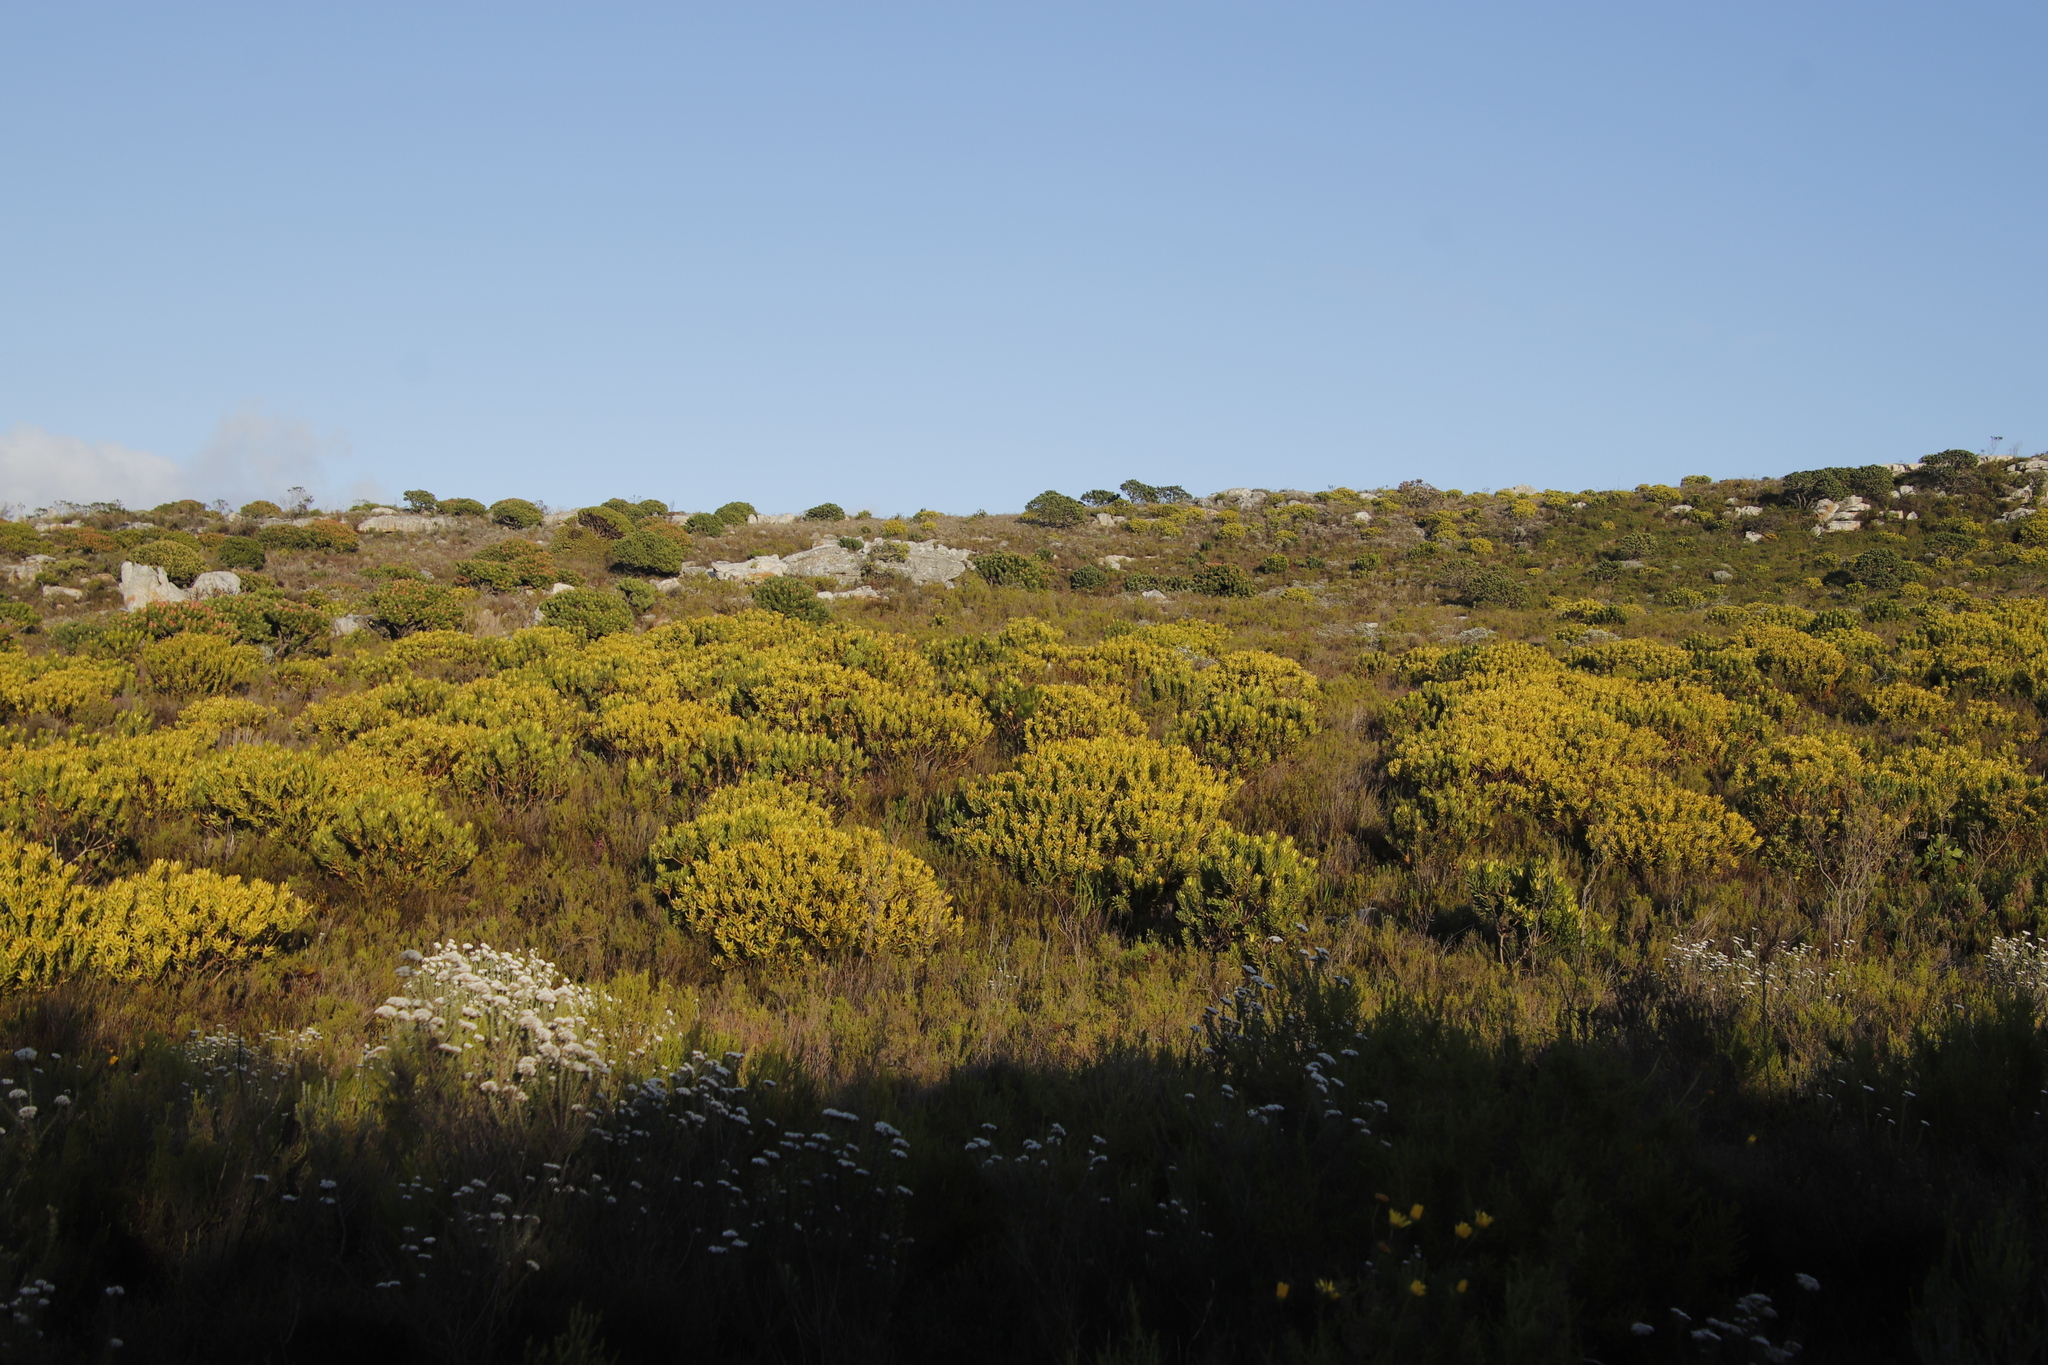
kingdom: Plantae
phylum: Tracheophyta
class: Magnoliopsida
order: Proteales
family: Proteaceae
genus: Leucadendron
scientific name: Leucadendron laureolum
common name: Golden sunshinebush
